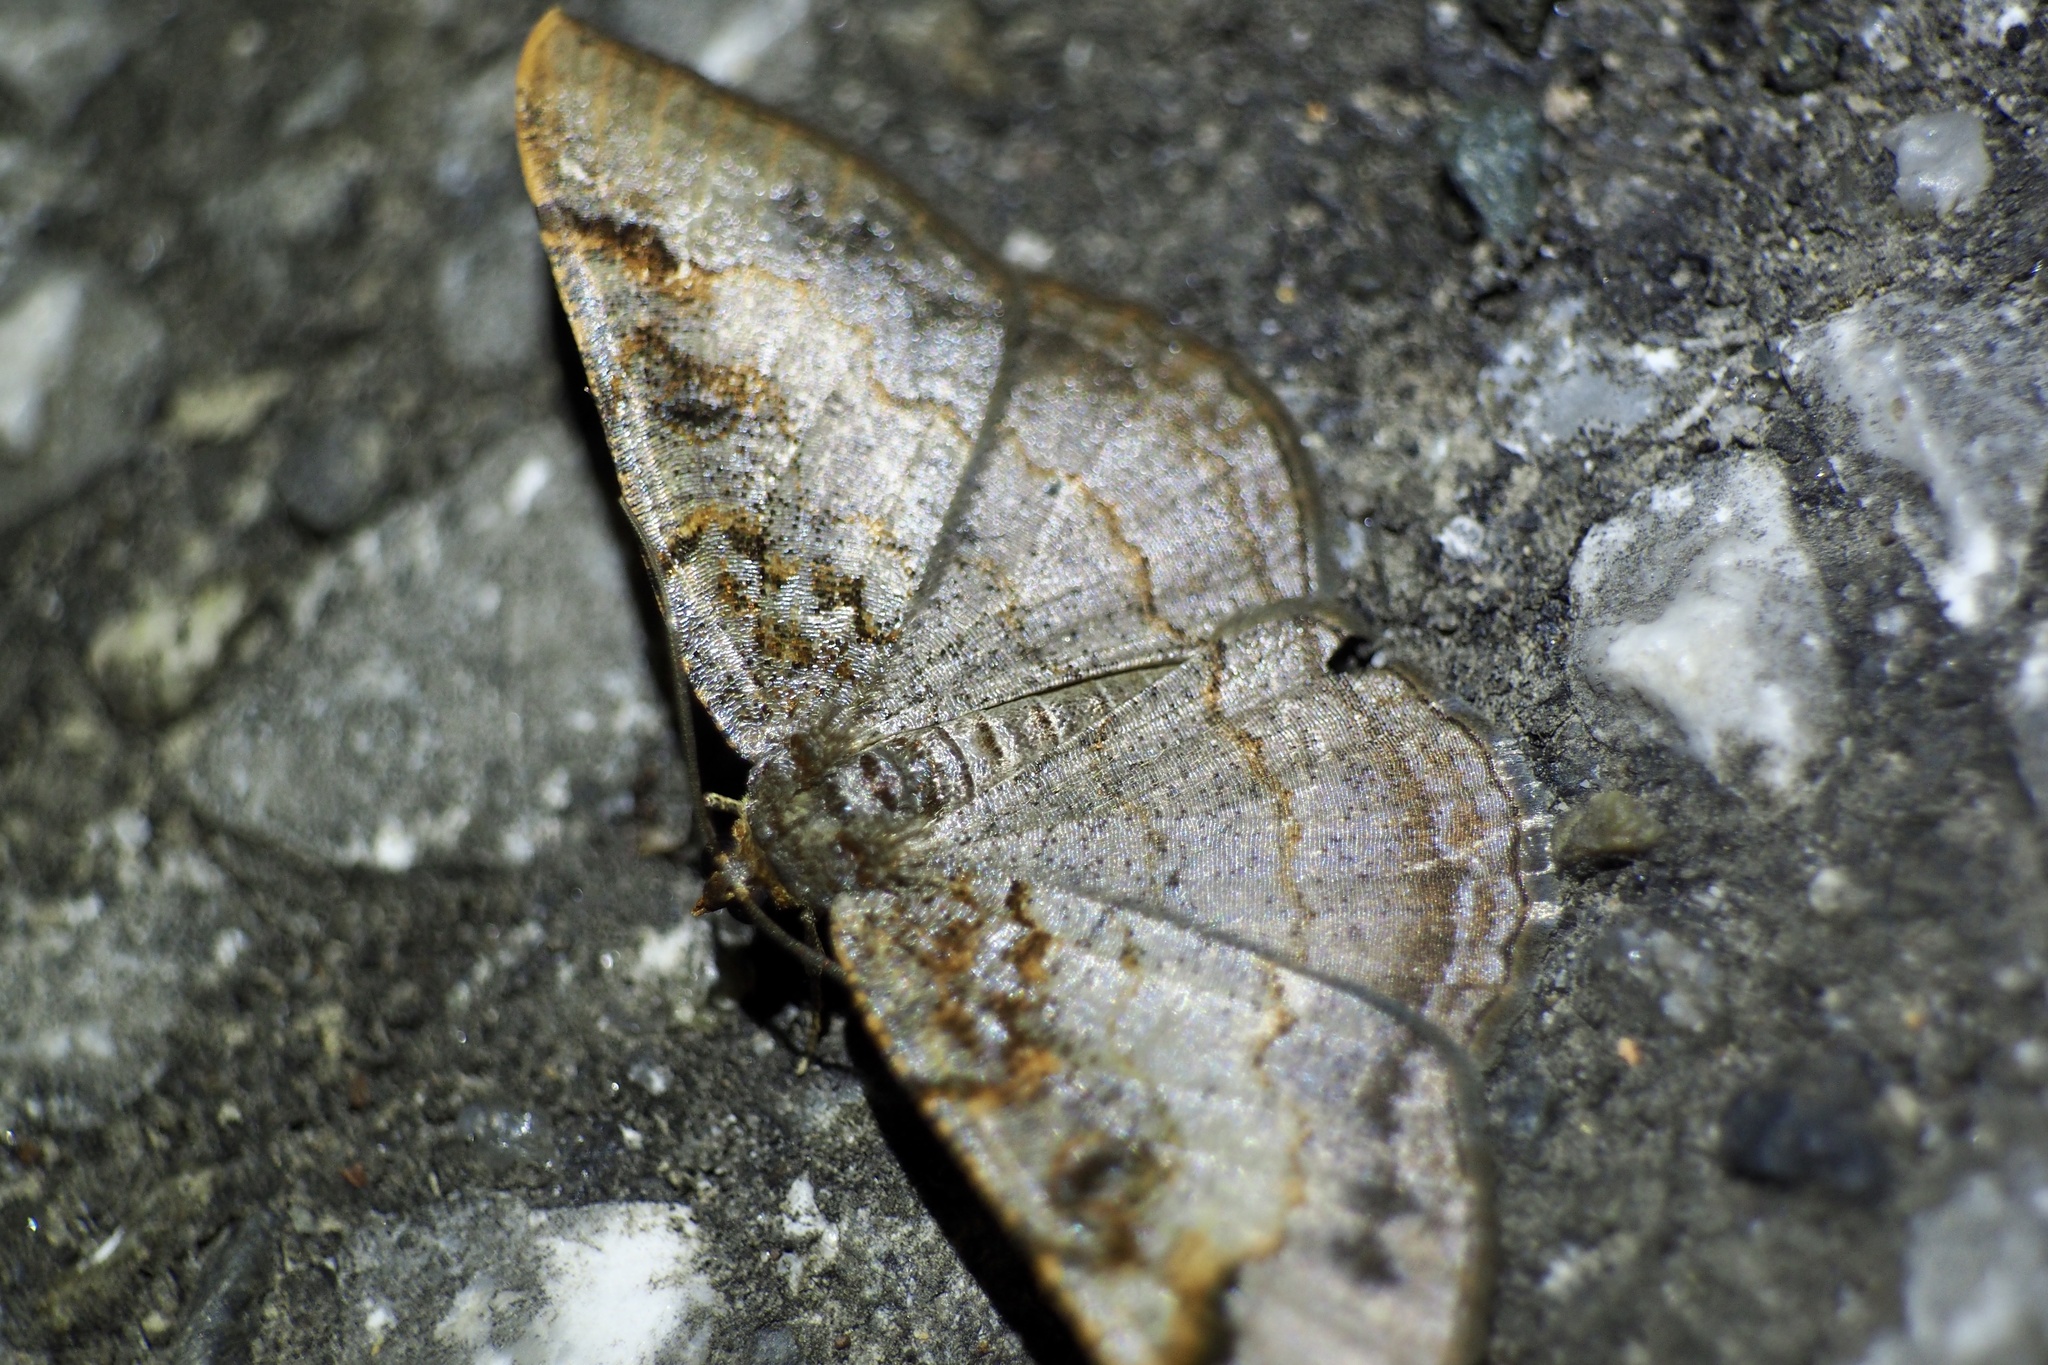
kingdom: Animalia
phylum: Arthropoda
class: Insecta
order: Lepidoptera
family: Geometridae
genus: Hypephyra
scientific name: Hypephyra terrosa
